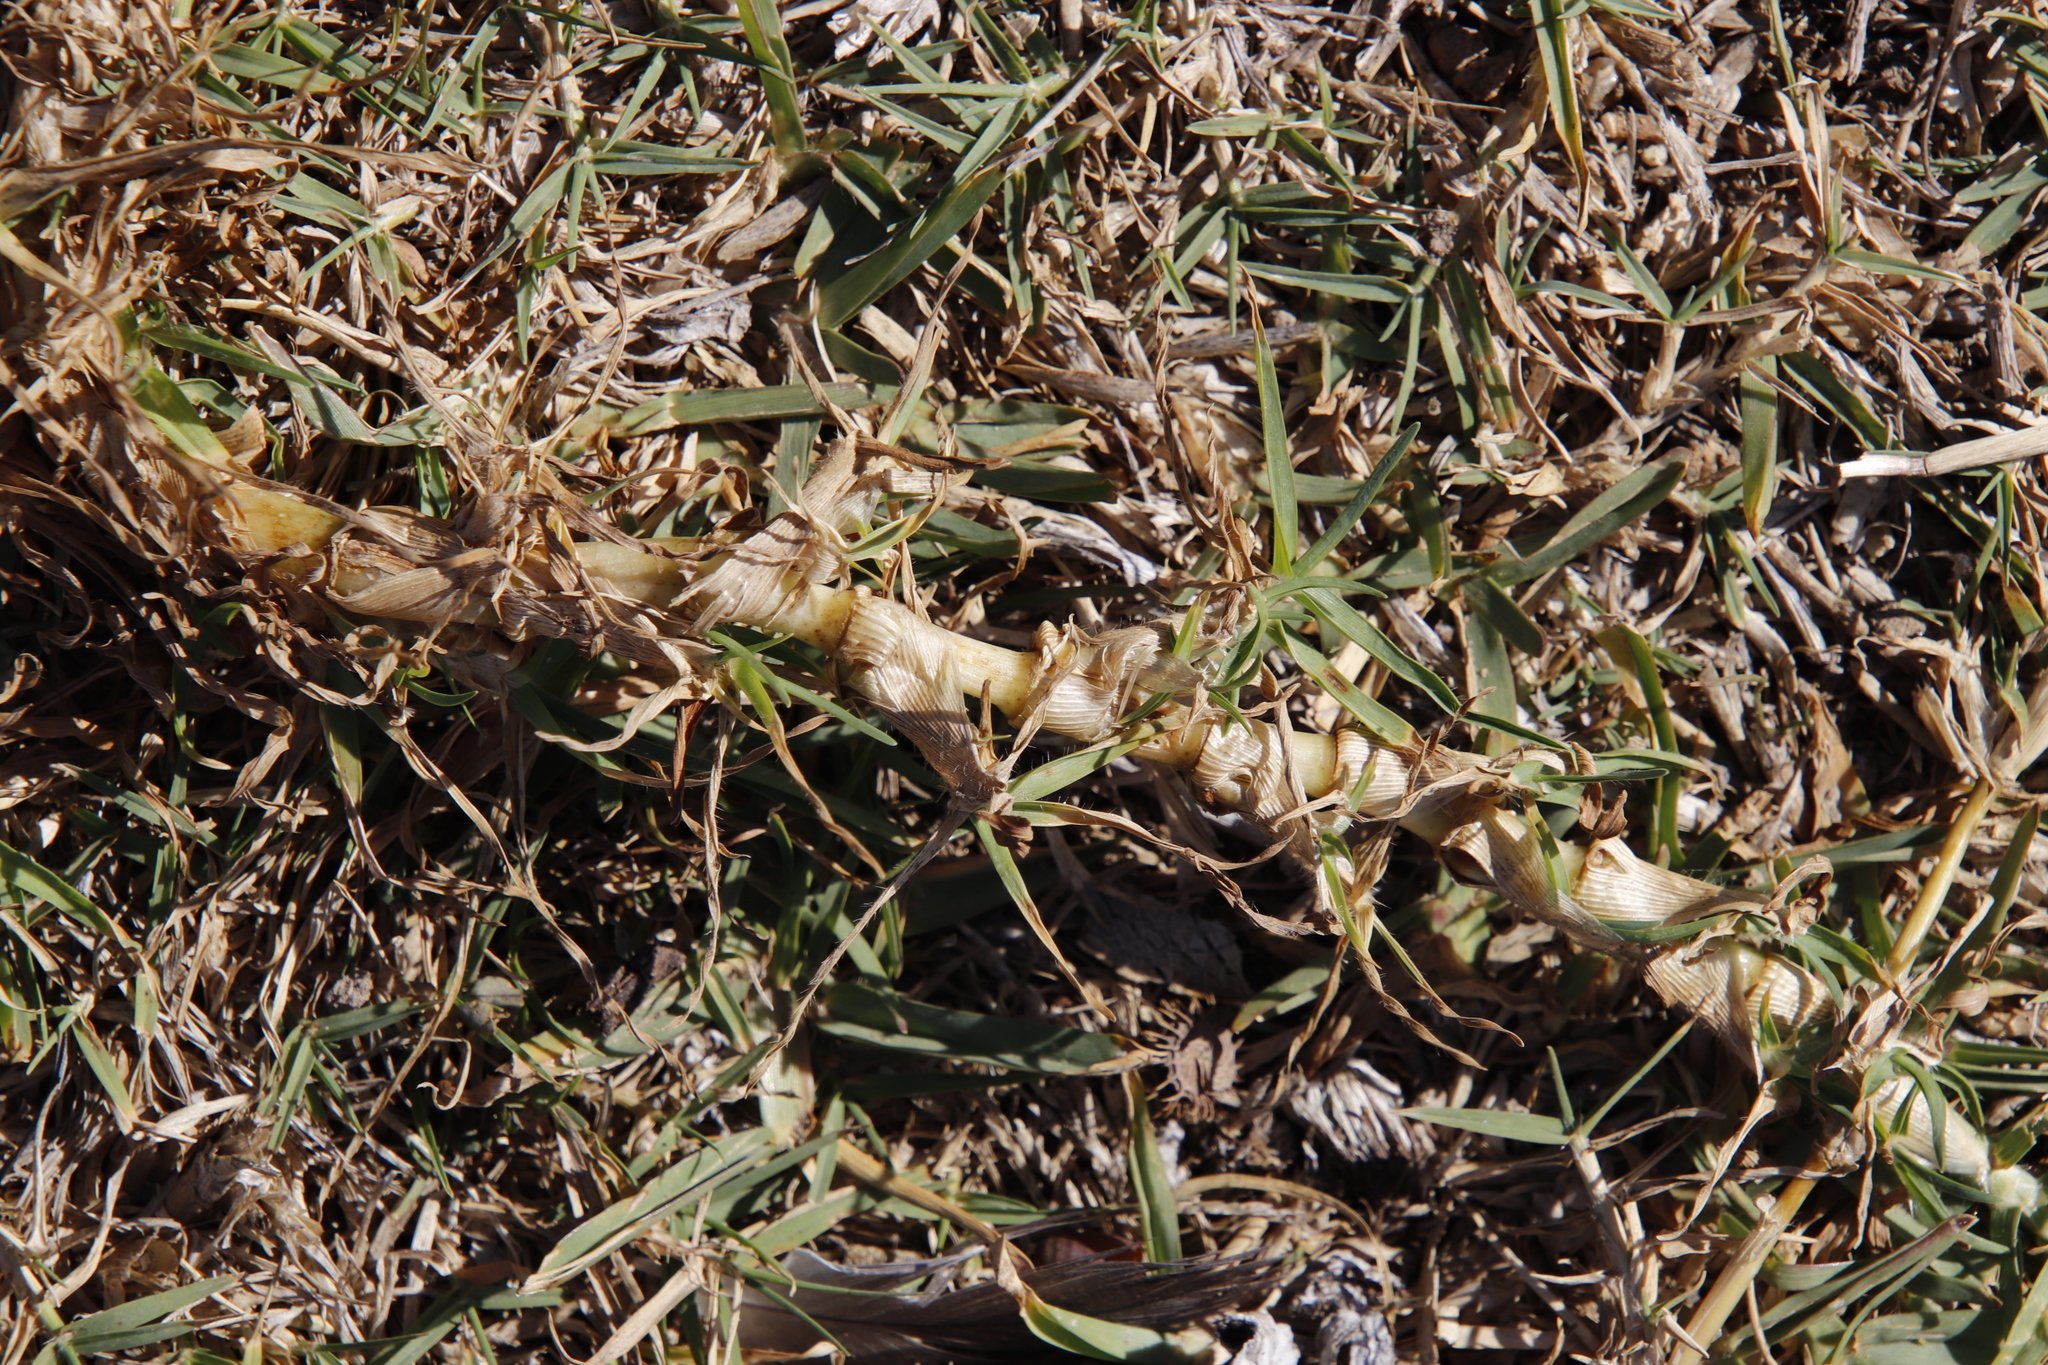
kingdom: Plantae
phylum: Tracheophyta
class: Liliopsida
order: Poales
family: Poaceae
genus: Cenchrus
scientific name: Cenchrus clandestinus
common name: Kikuyugrass
